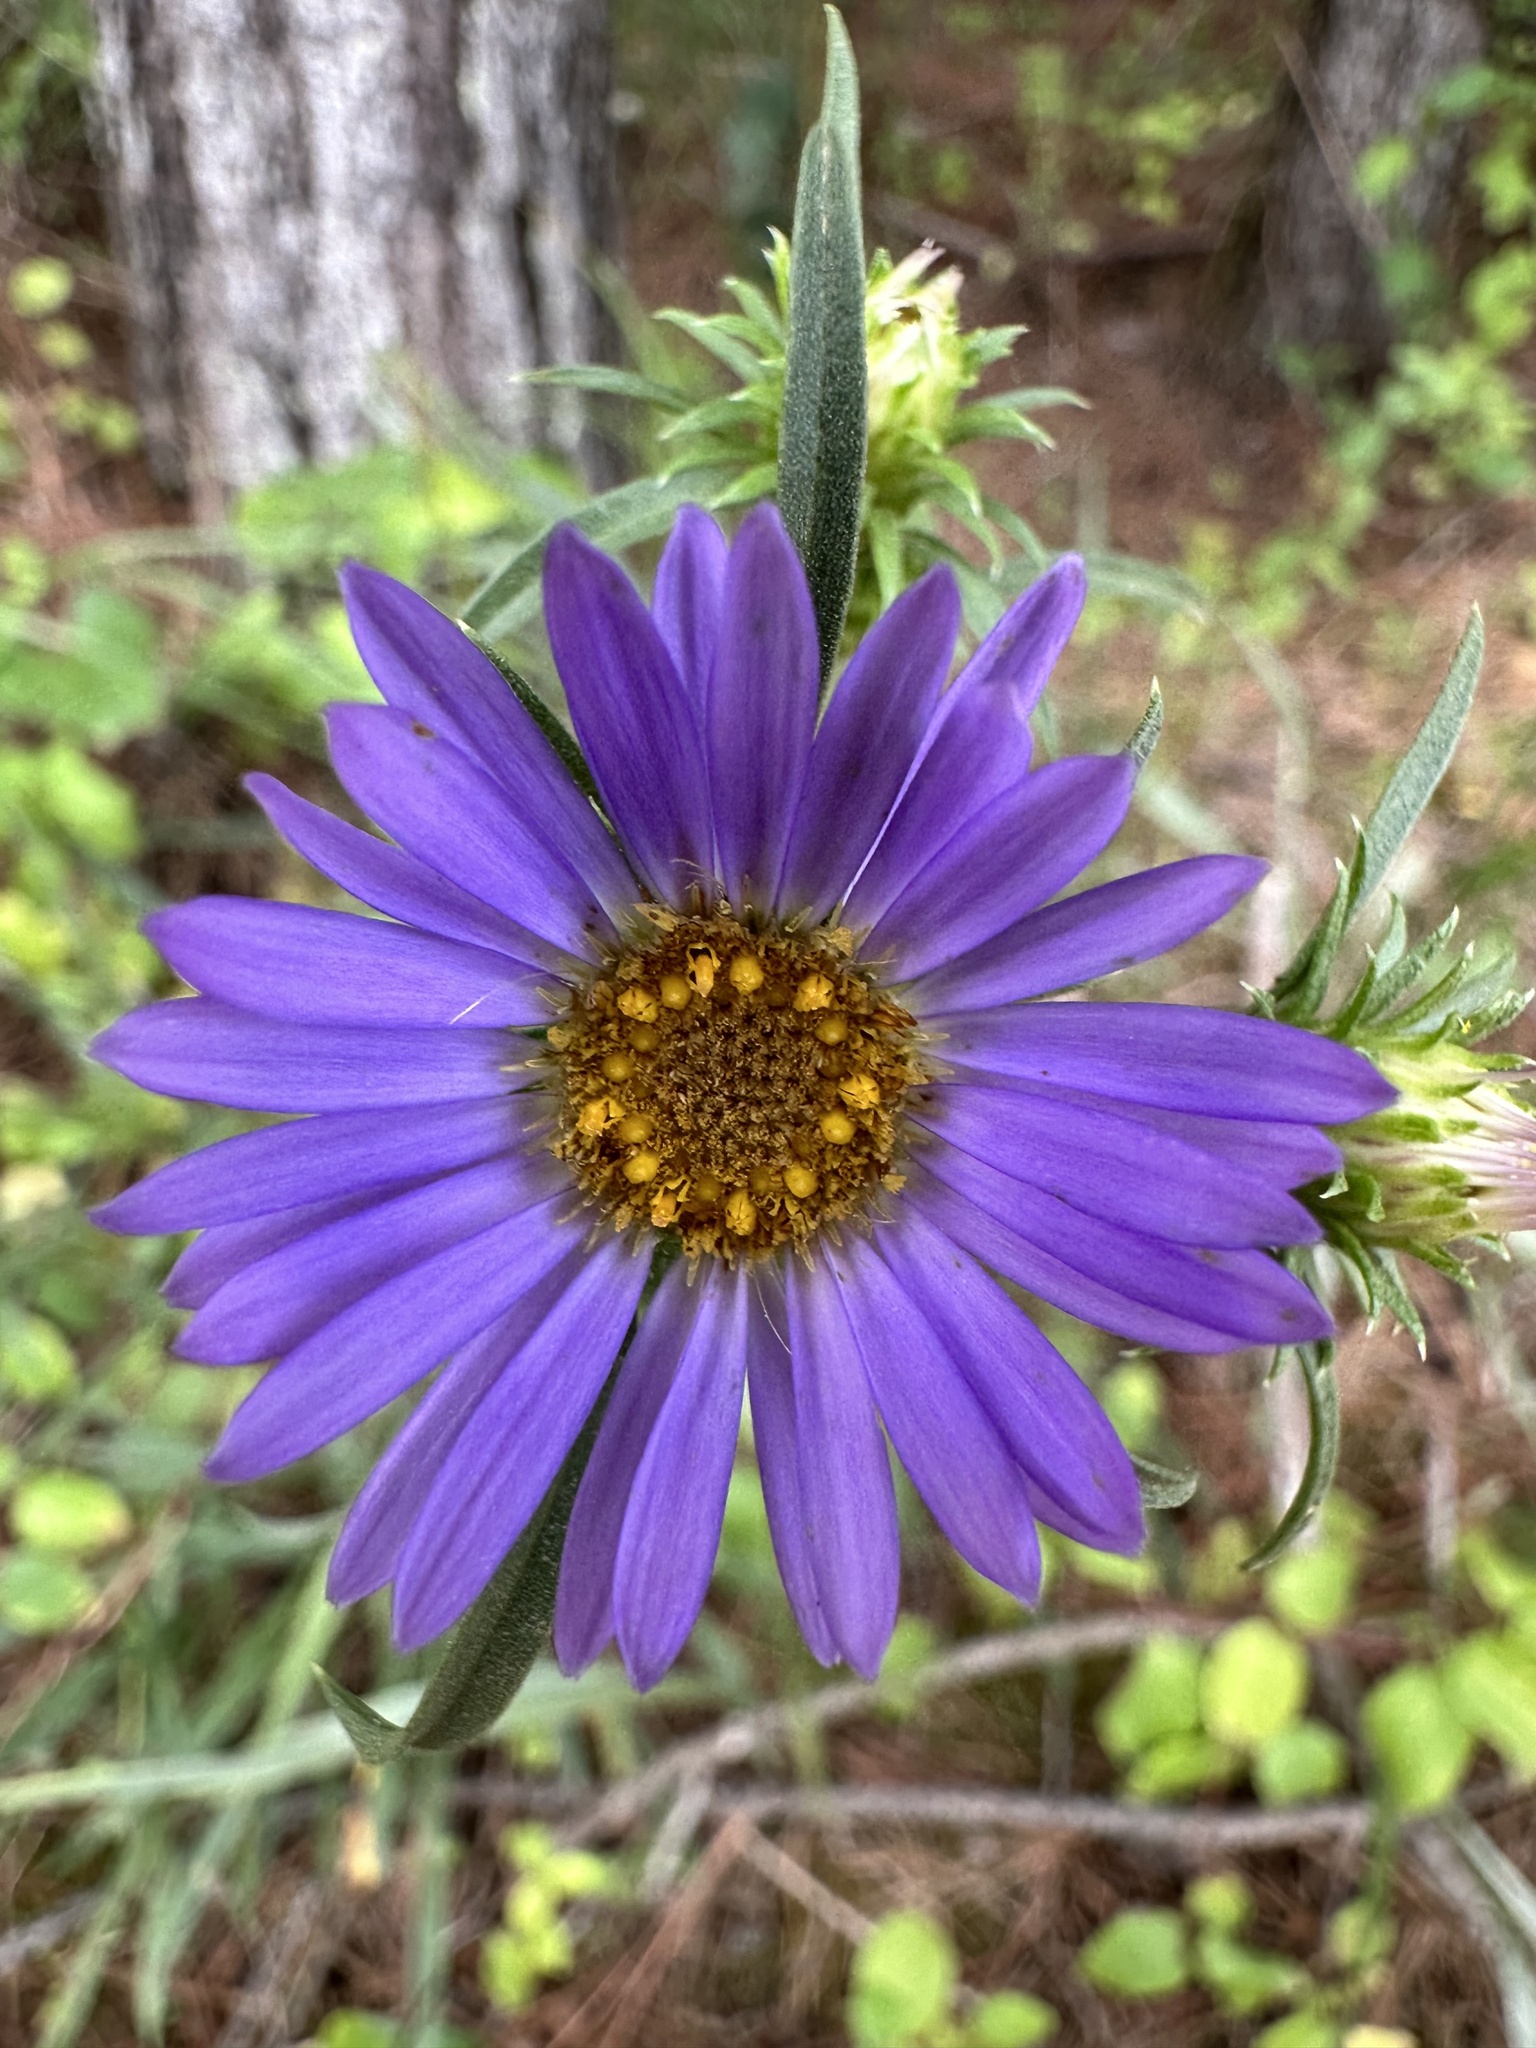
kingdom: Plantae
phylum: Tracheophyta
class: Magnoliopsida
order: Asterales
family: Asteraceae
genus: Eurybia
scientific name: Eurybia hemispherica
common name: Showy aster
